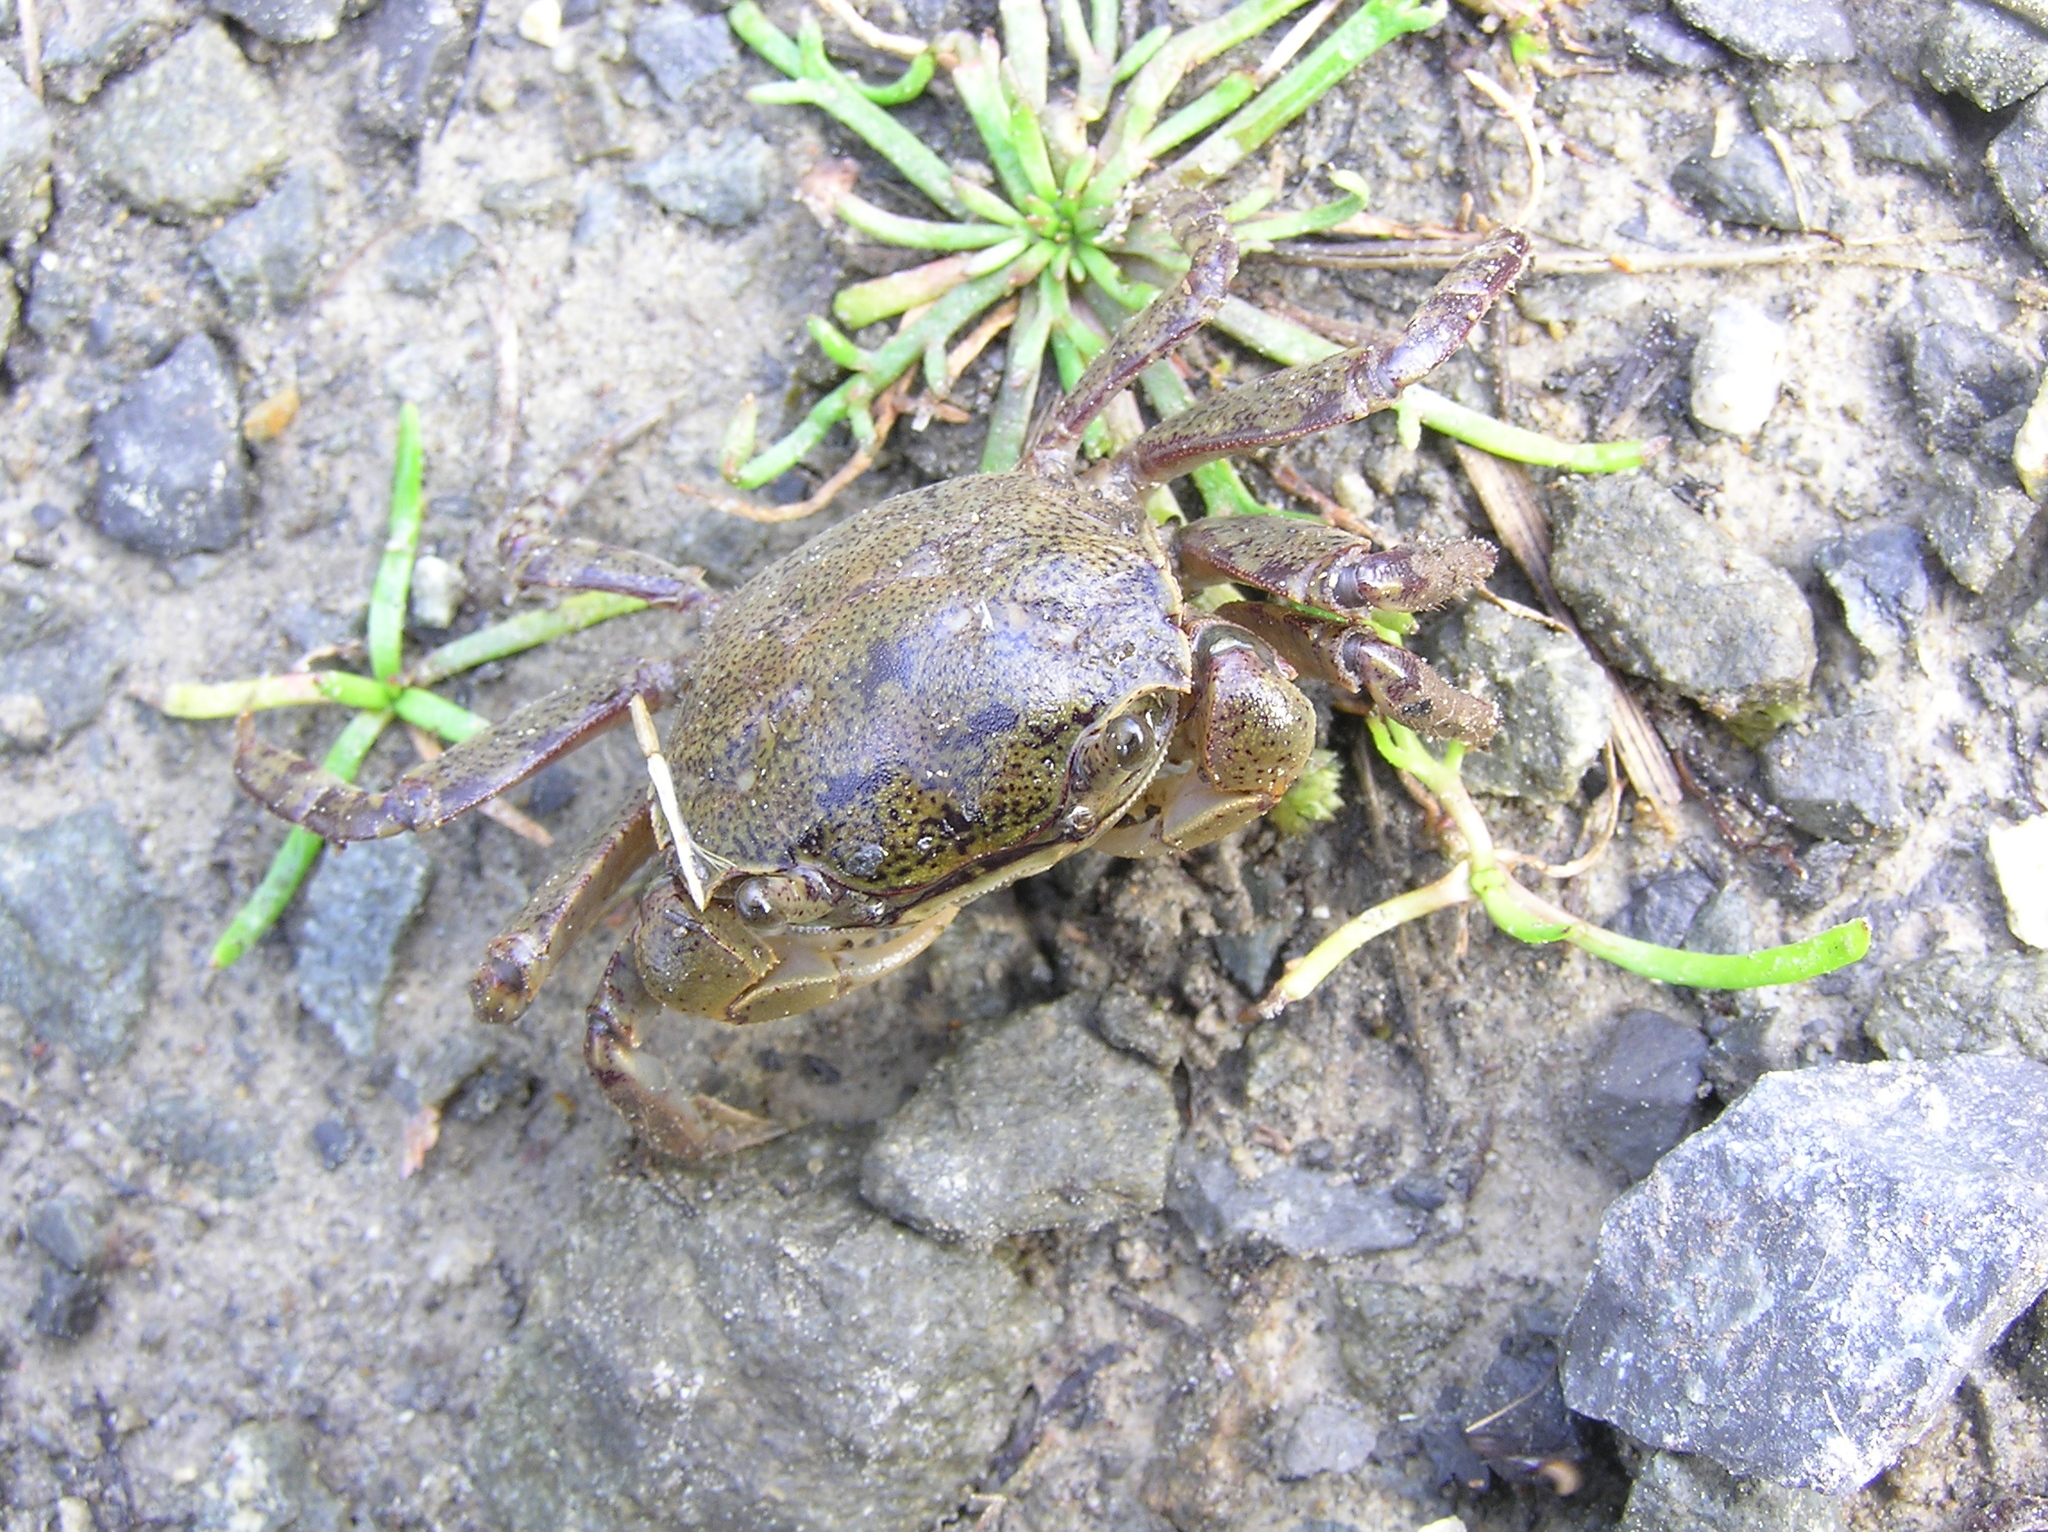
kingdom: Animalia
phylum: Arthropoda
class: Malacostraca
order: Decapoda
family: Varunidae
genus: Austrohelice
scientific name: Austrohelice crassa
